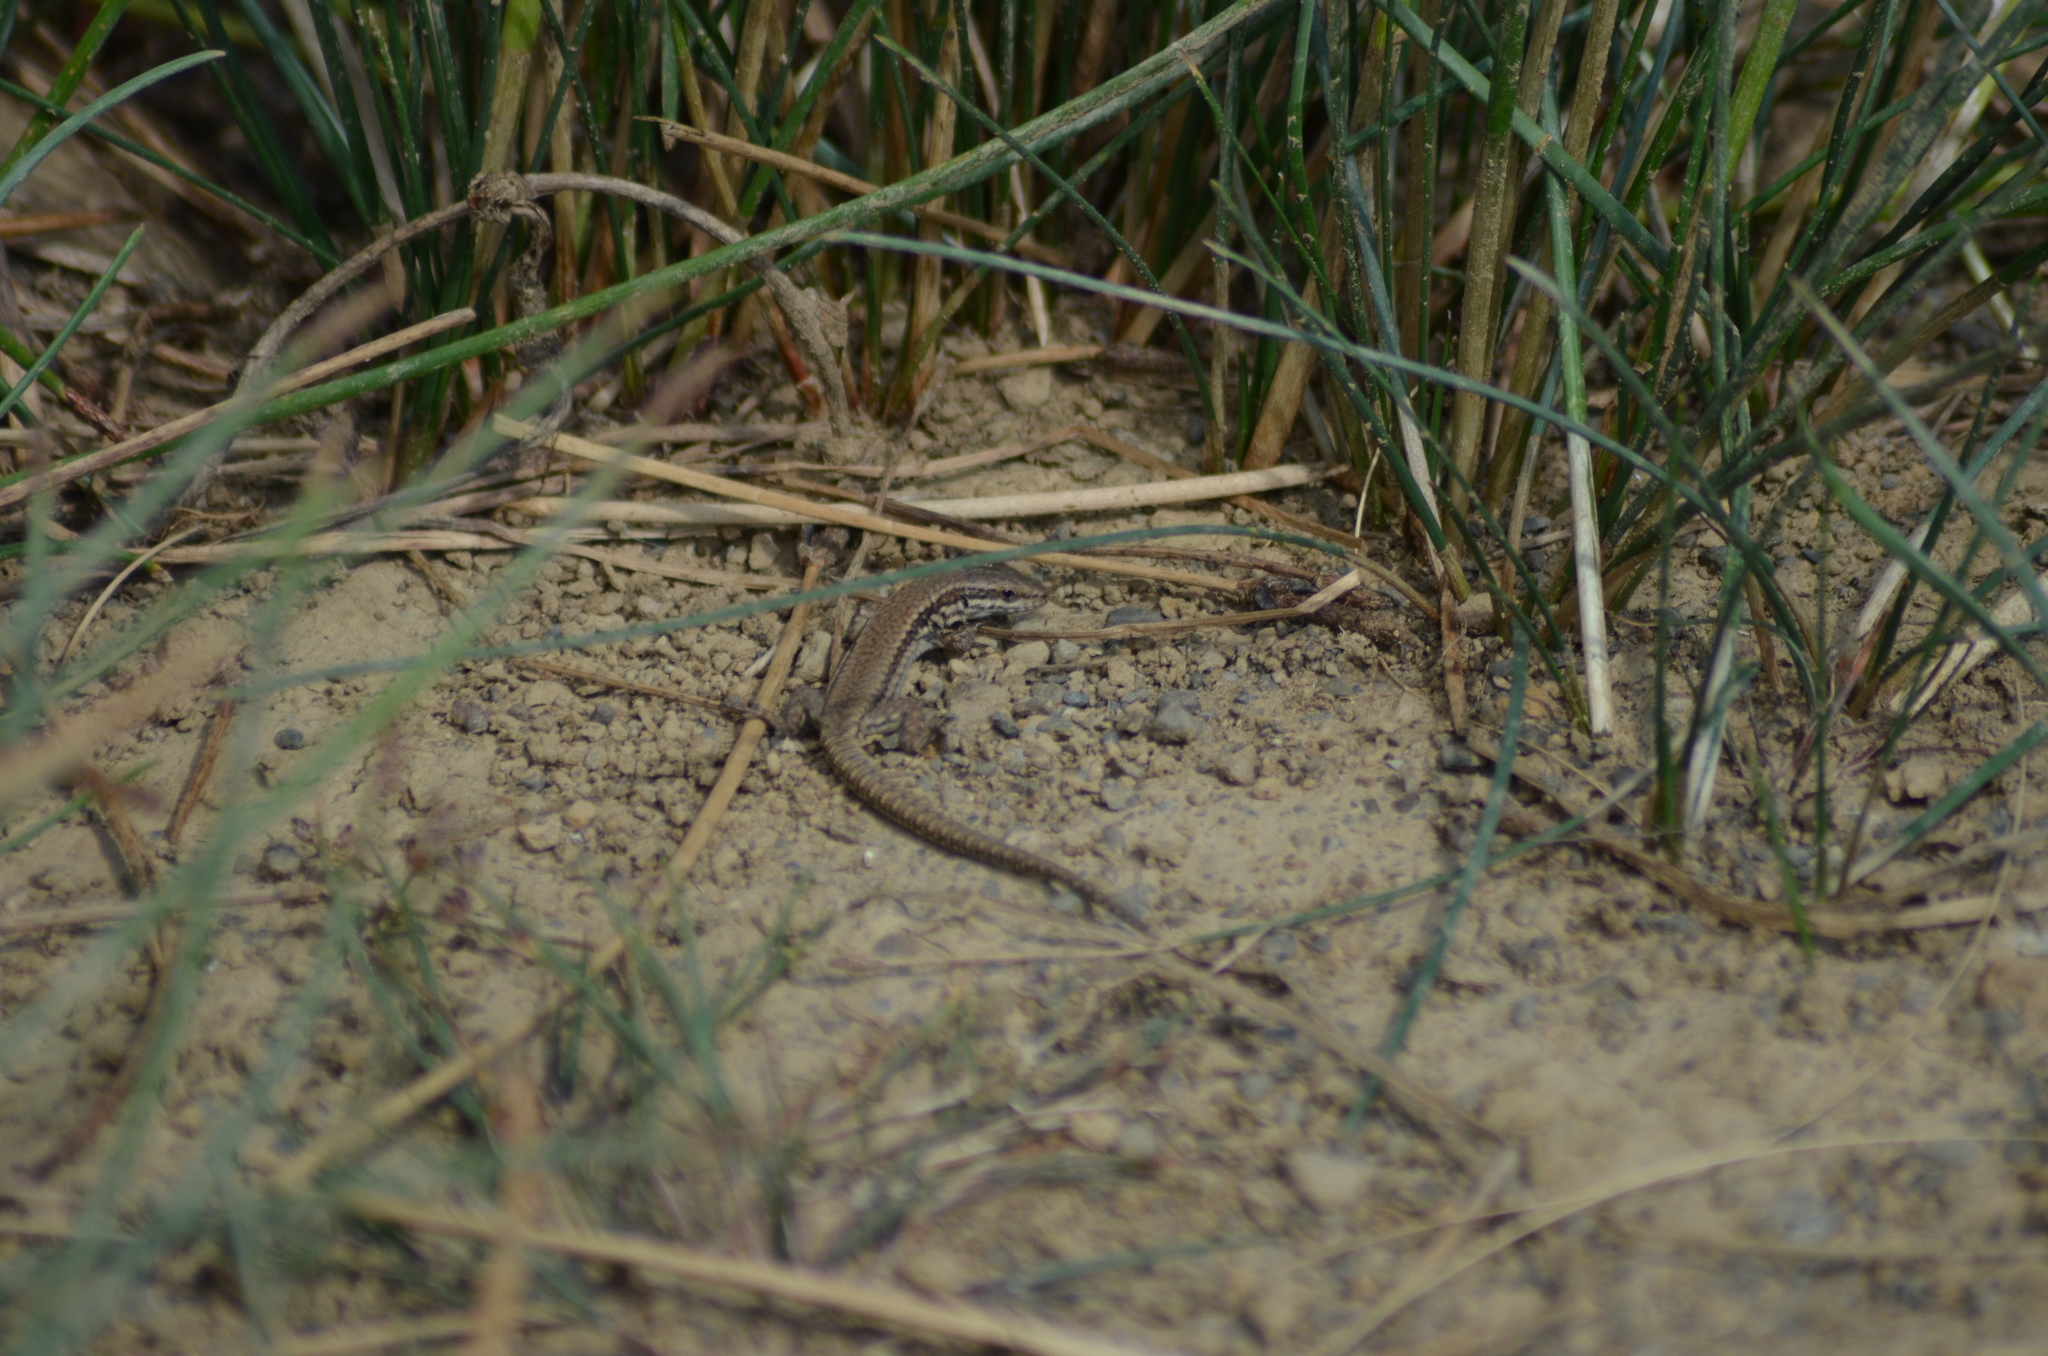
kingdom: Animalia
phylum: Chordata
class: Squamata
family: Lacertidae
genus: Podarcis
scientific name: Podarcis muralis
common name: Common wall lizard
